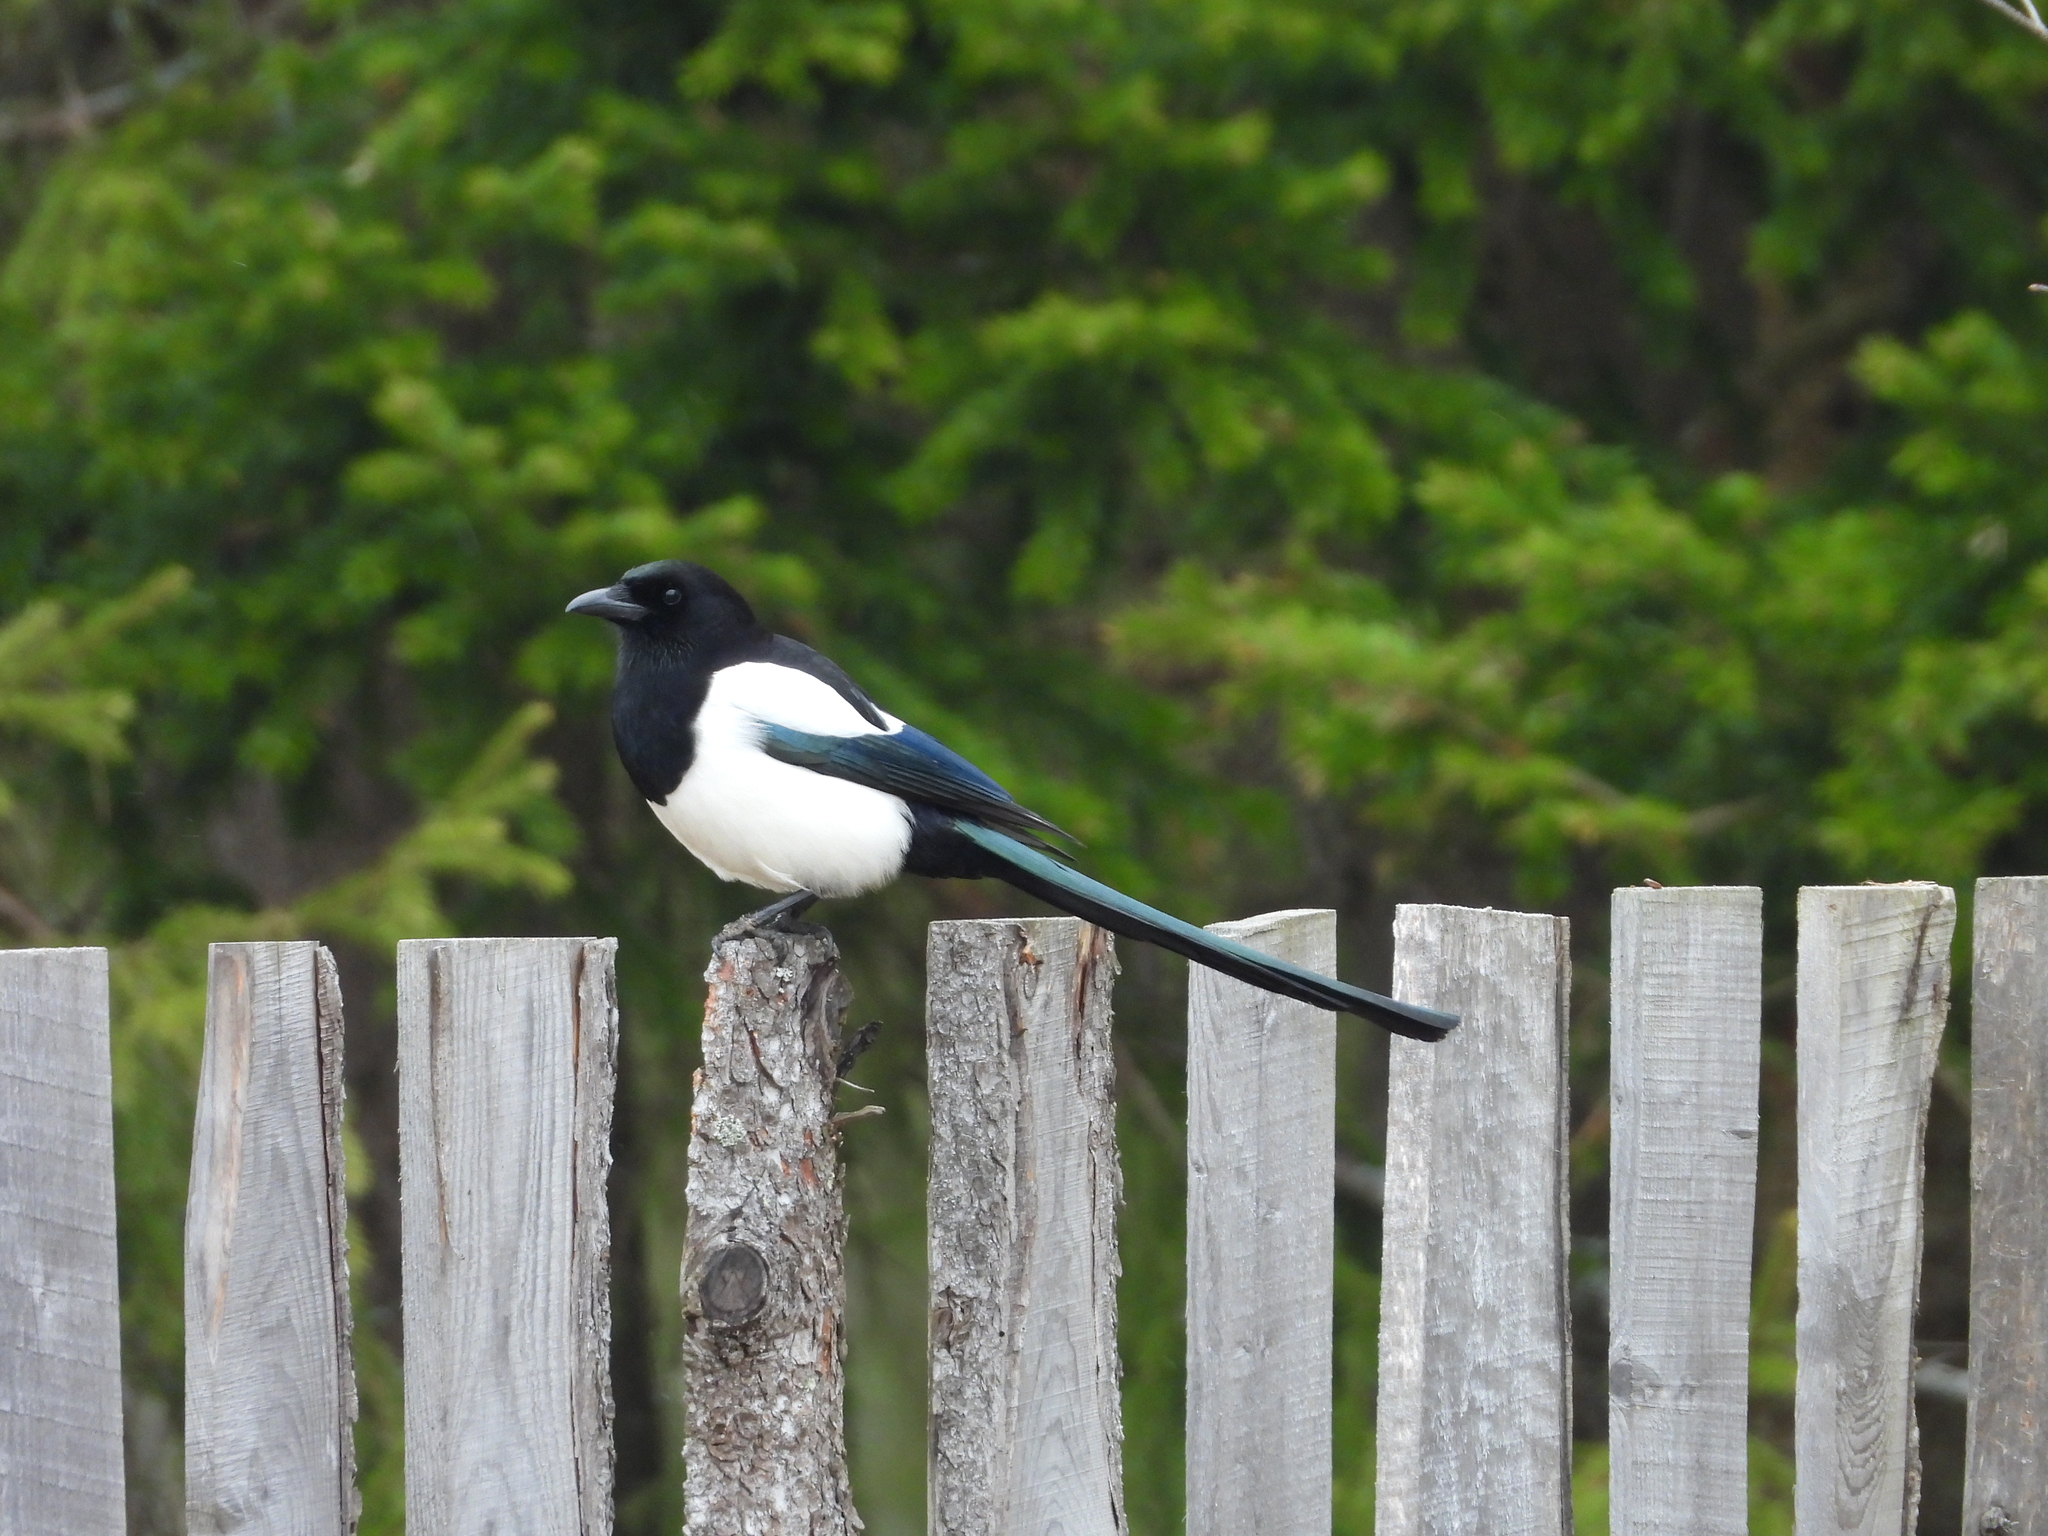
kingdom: Animalia
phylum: Chordata
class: Aves
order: Passeriformes
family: Corvidae
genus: Pica
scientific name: Pica pica
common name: Eurasian magpie
